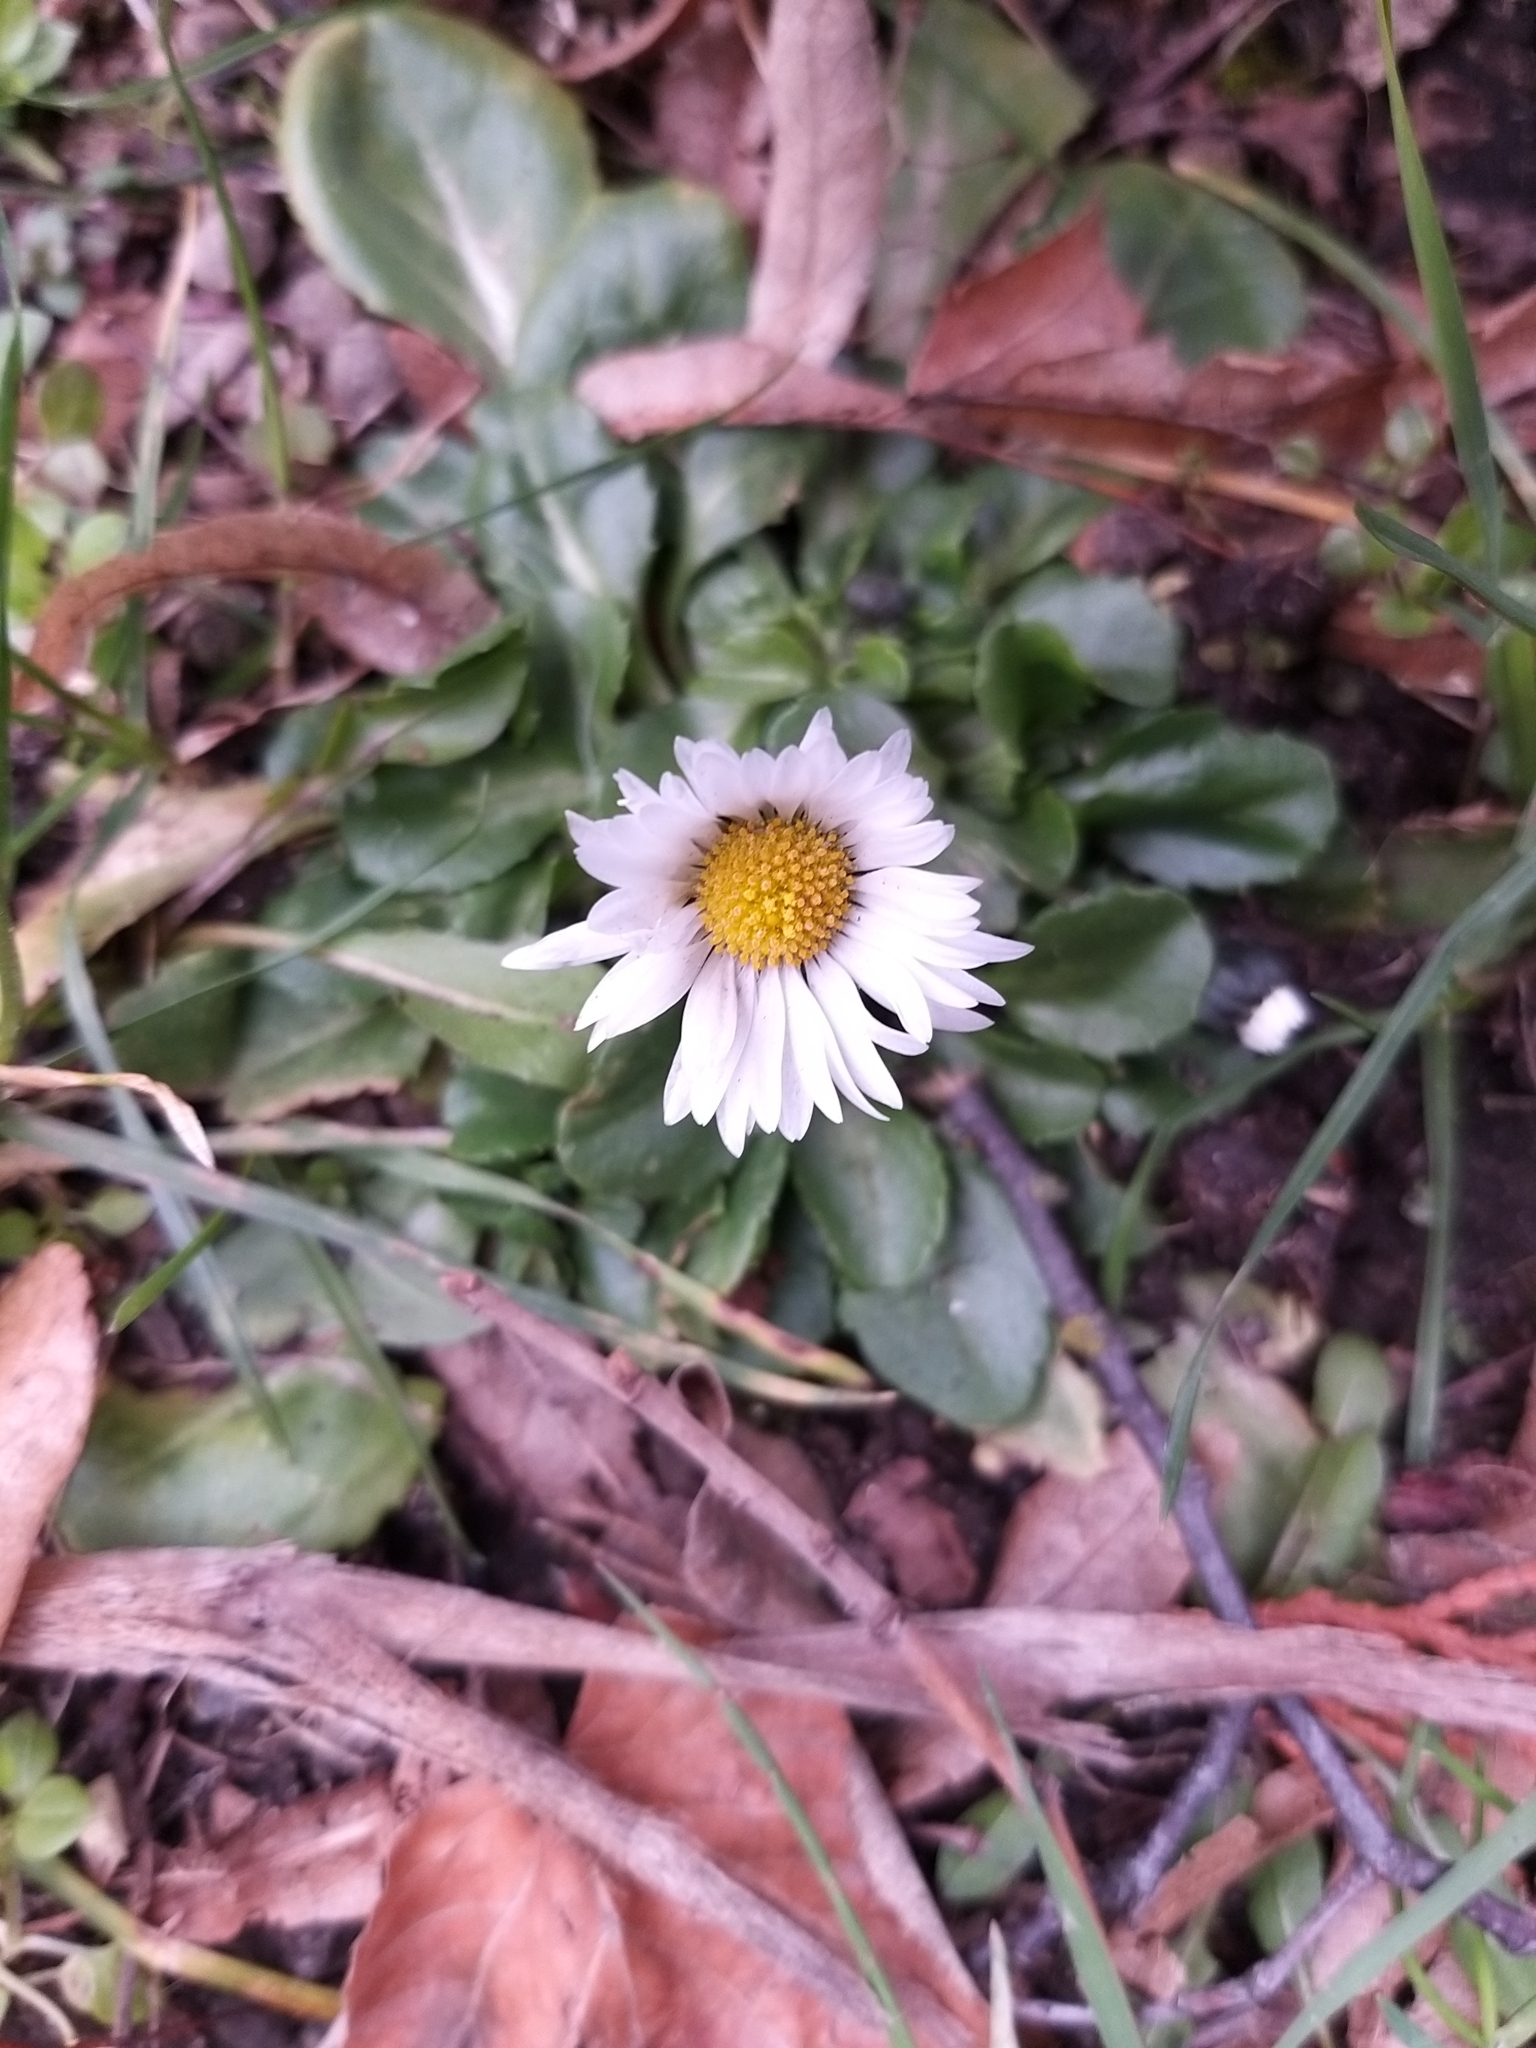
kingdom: Plantae
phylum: Tracheophyta
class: Magnoliopsida
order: Asterales
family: Asteraceae
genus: Bellis
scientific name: Bellis perennis
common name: Lawndaisy
